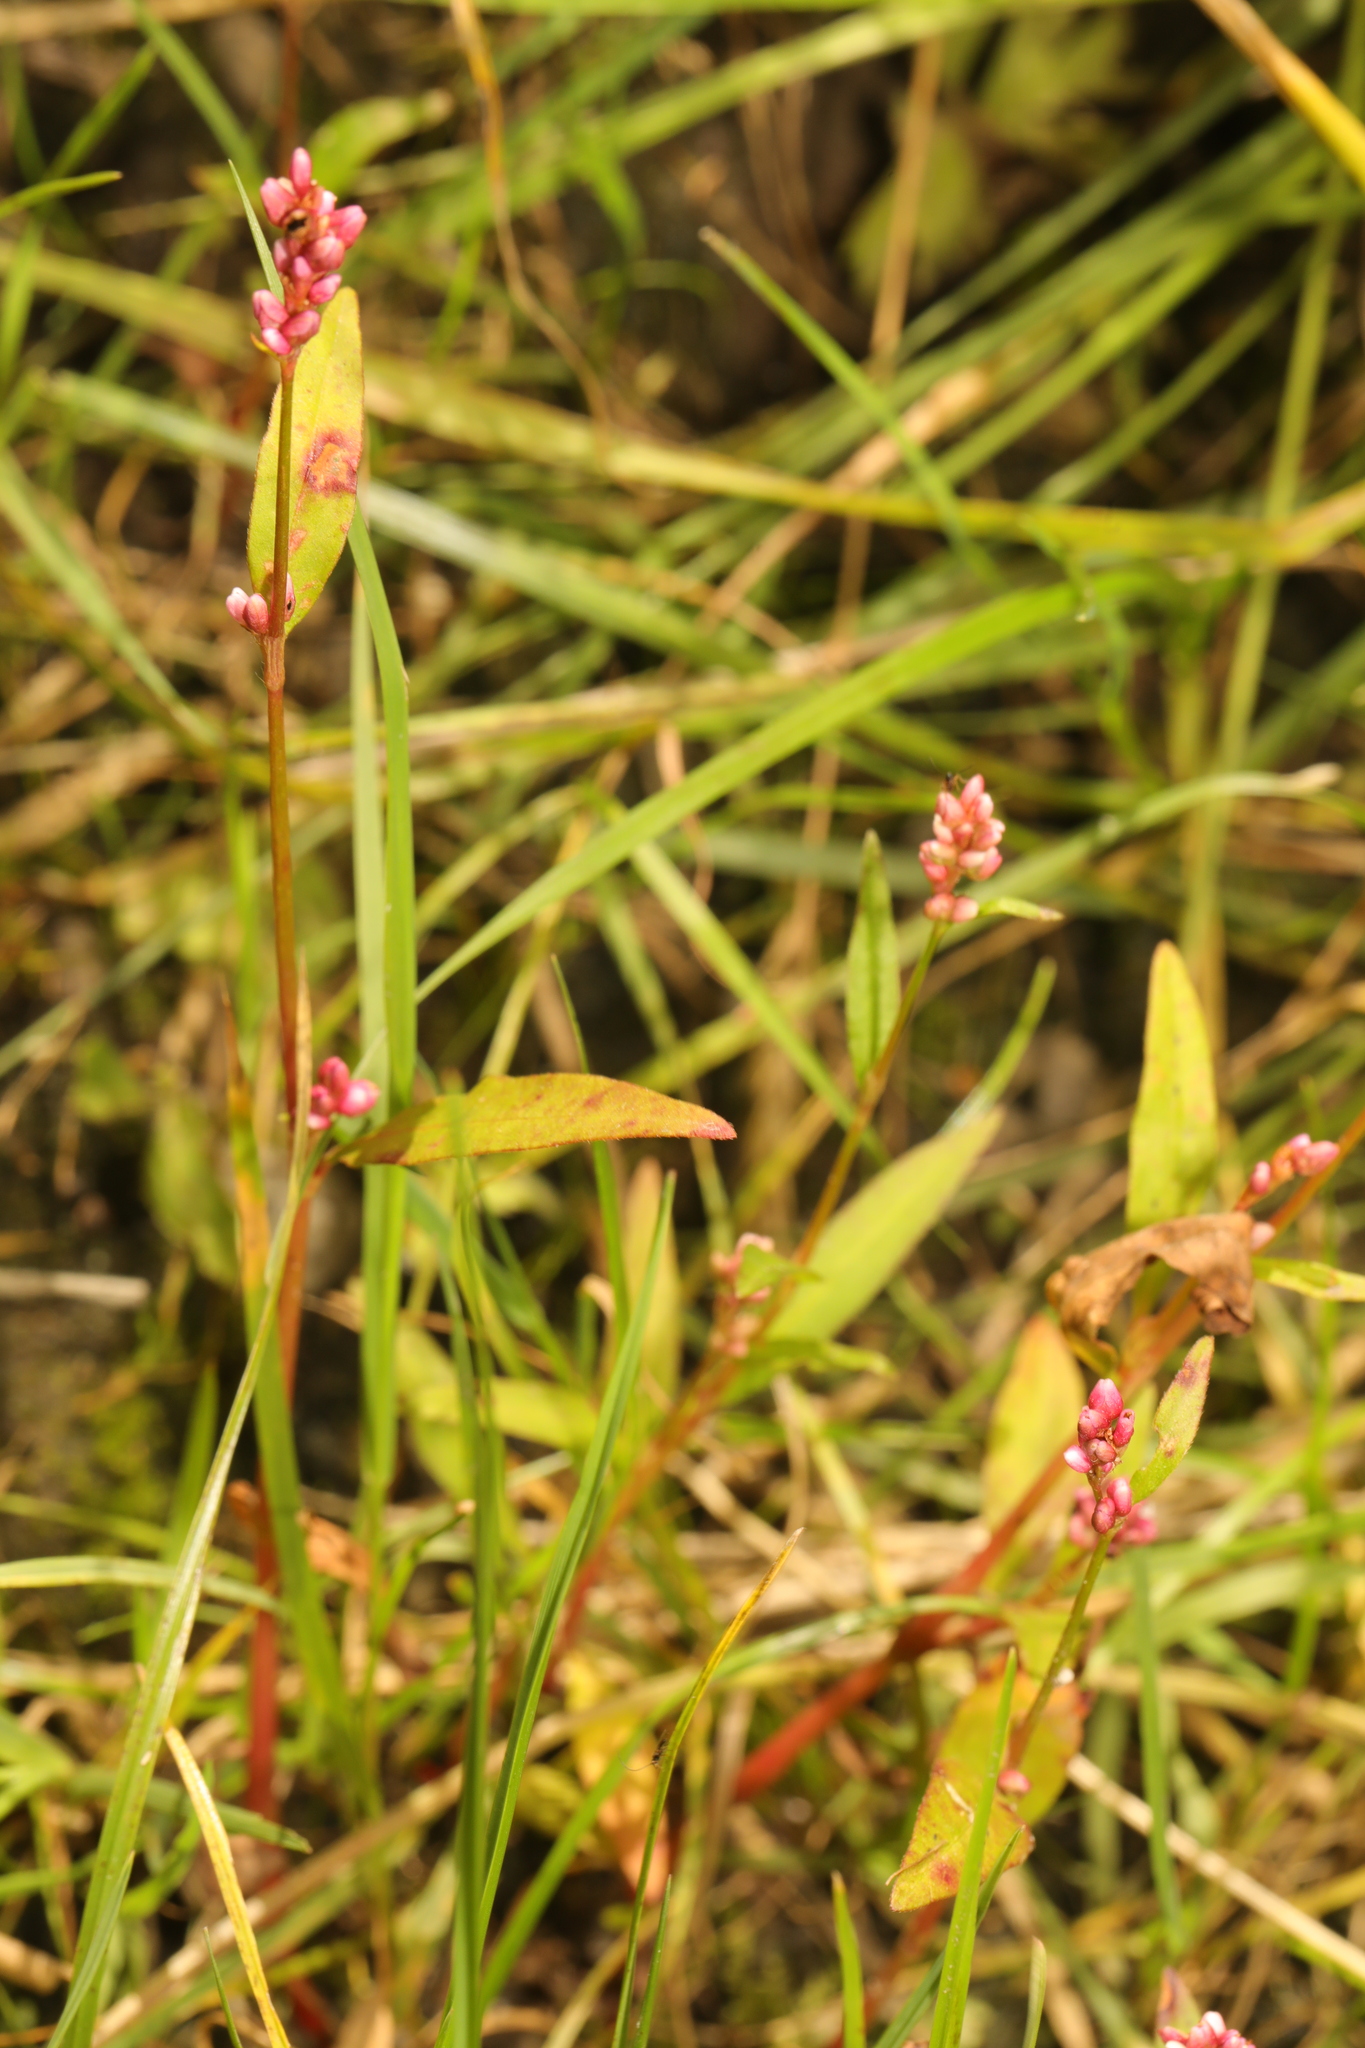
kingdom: Plantae
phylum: Tracheophyta
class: Magnoliopsida
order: Caryophyllales
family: Polygonaceae
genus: Persicaria
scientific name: Persicaria maculosa
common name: Redshank
